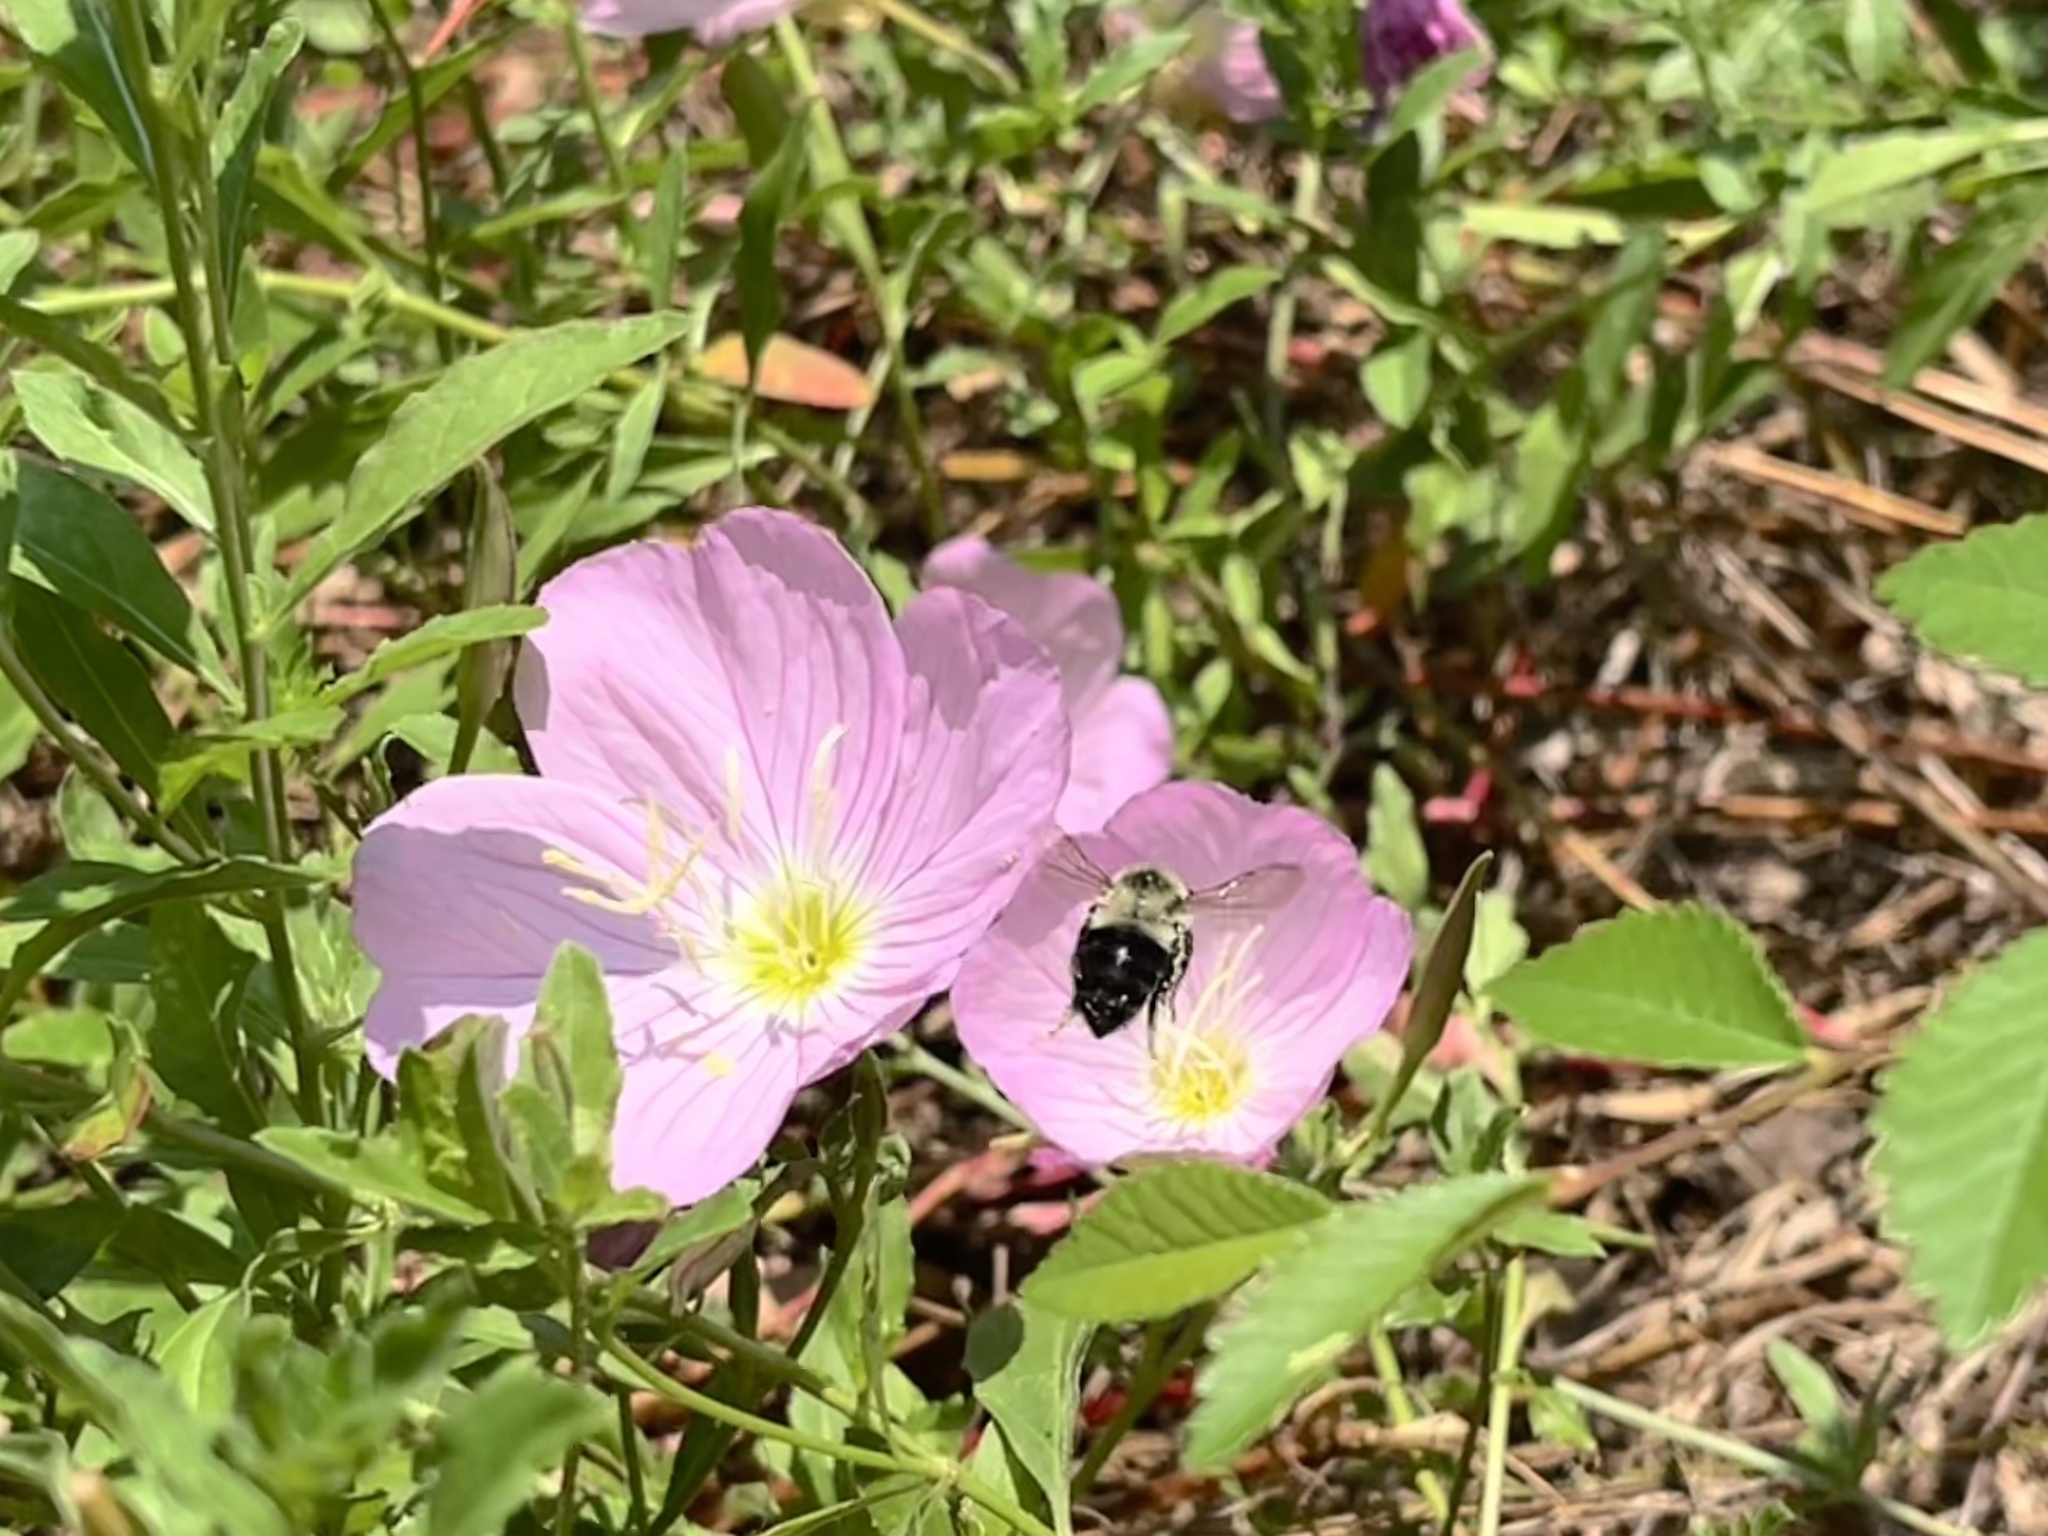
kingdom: Animalia
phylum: Arthropoda
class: Insecta
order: Hymenoptera
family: Apidae
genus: Bombus
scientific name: Bombus impatiens
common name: Common eastern bumble bee
